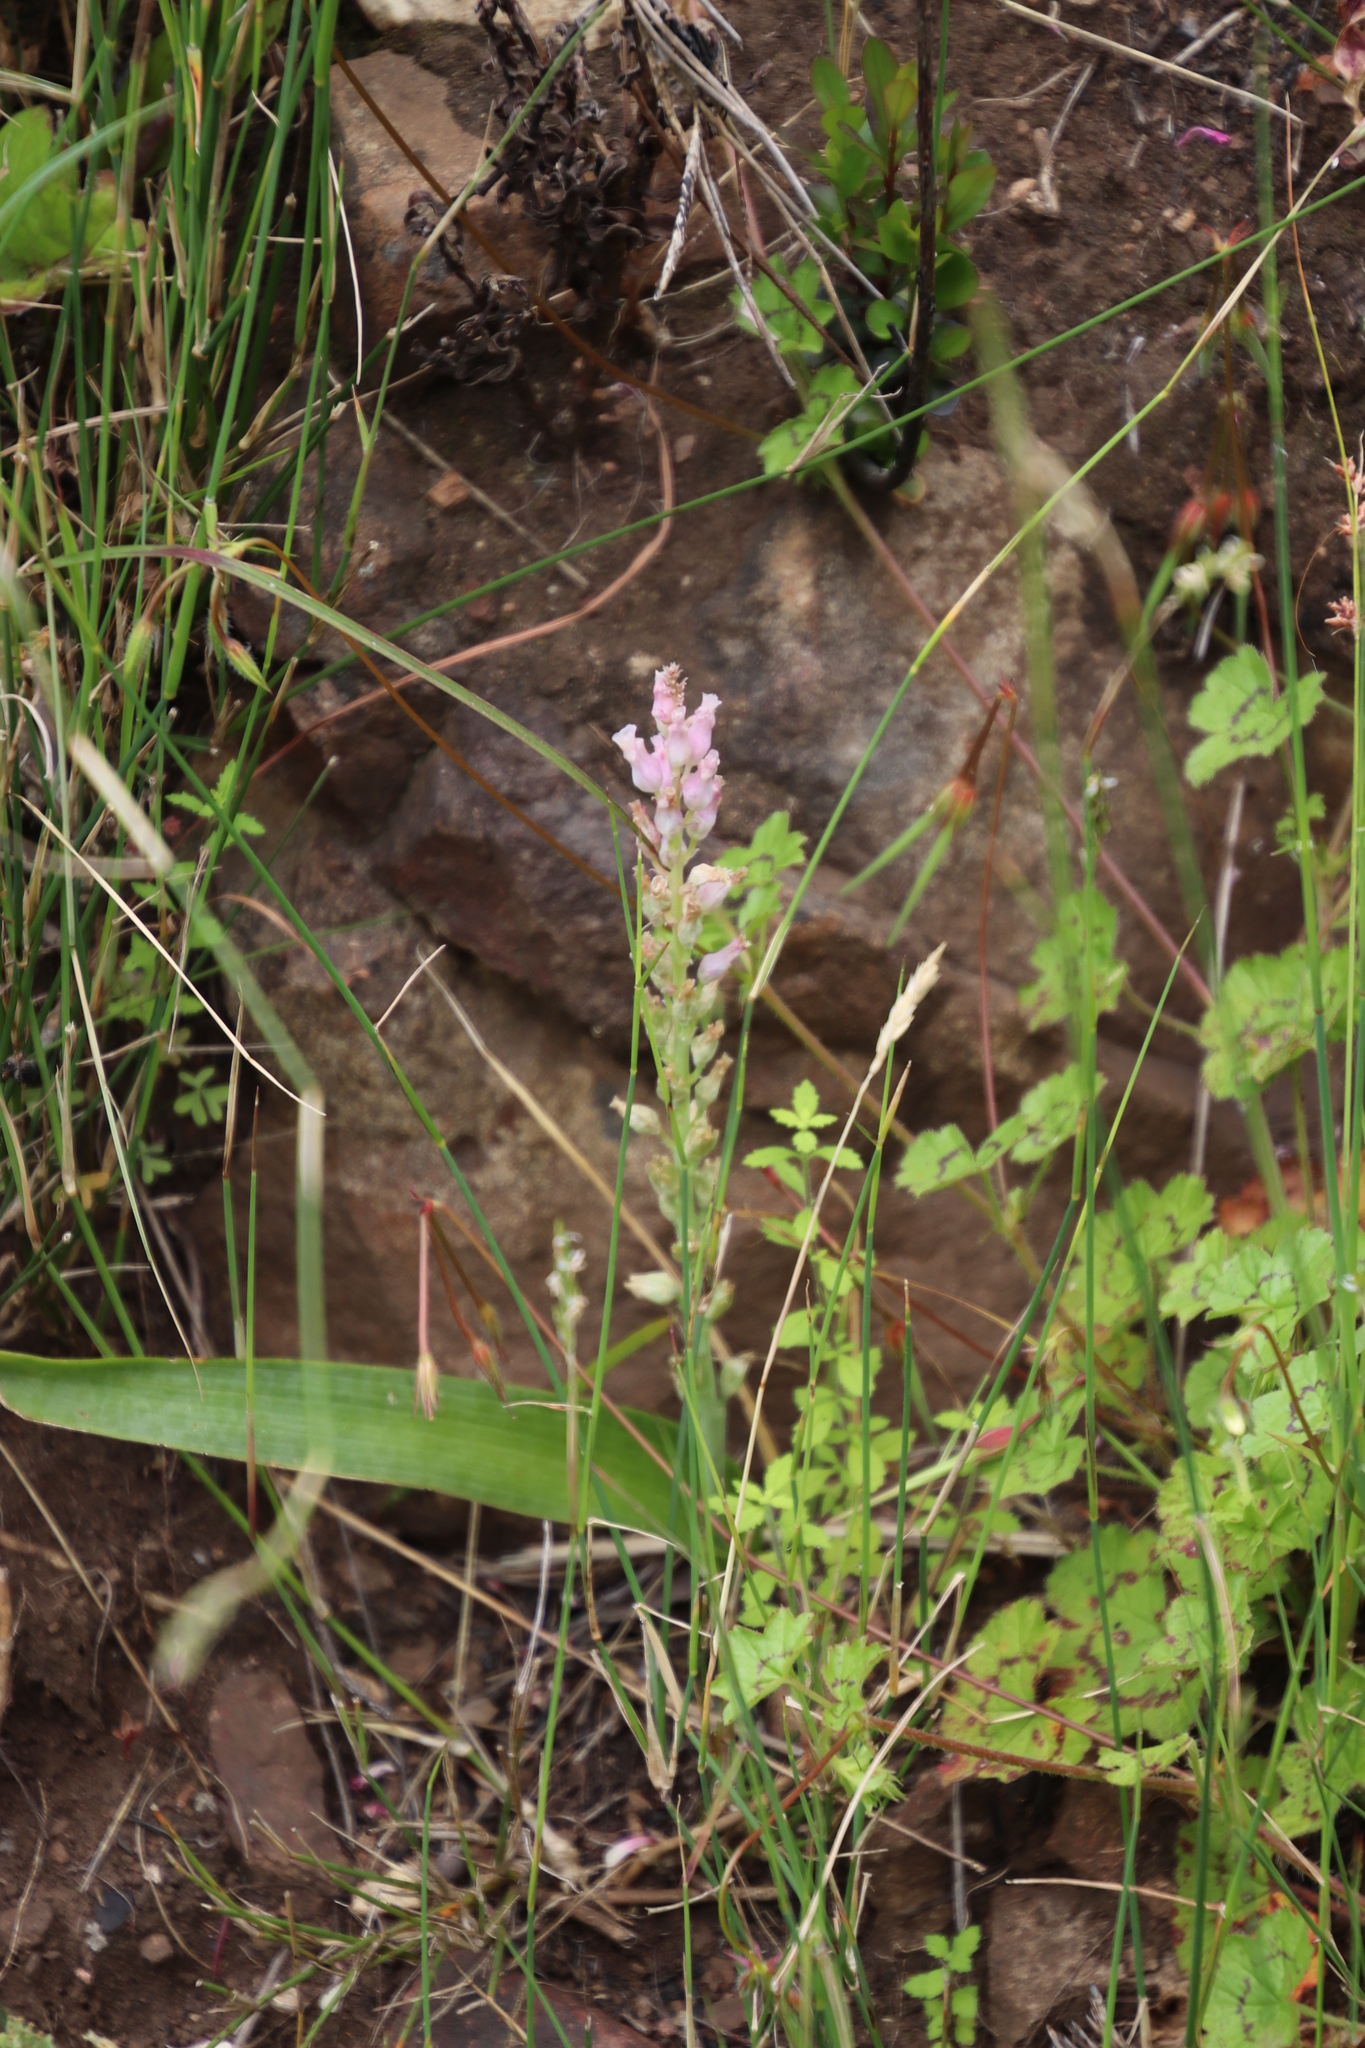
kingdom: Plantae
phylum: Tracheophyta
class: Liliopsida
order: Asparagales
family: Asparagaceae
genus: Lachenalia
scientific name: Lachenalia rosea
